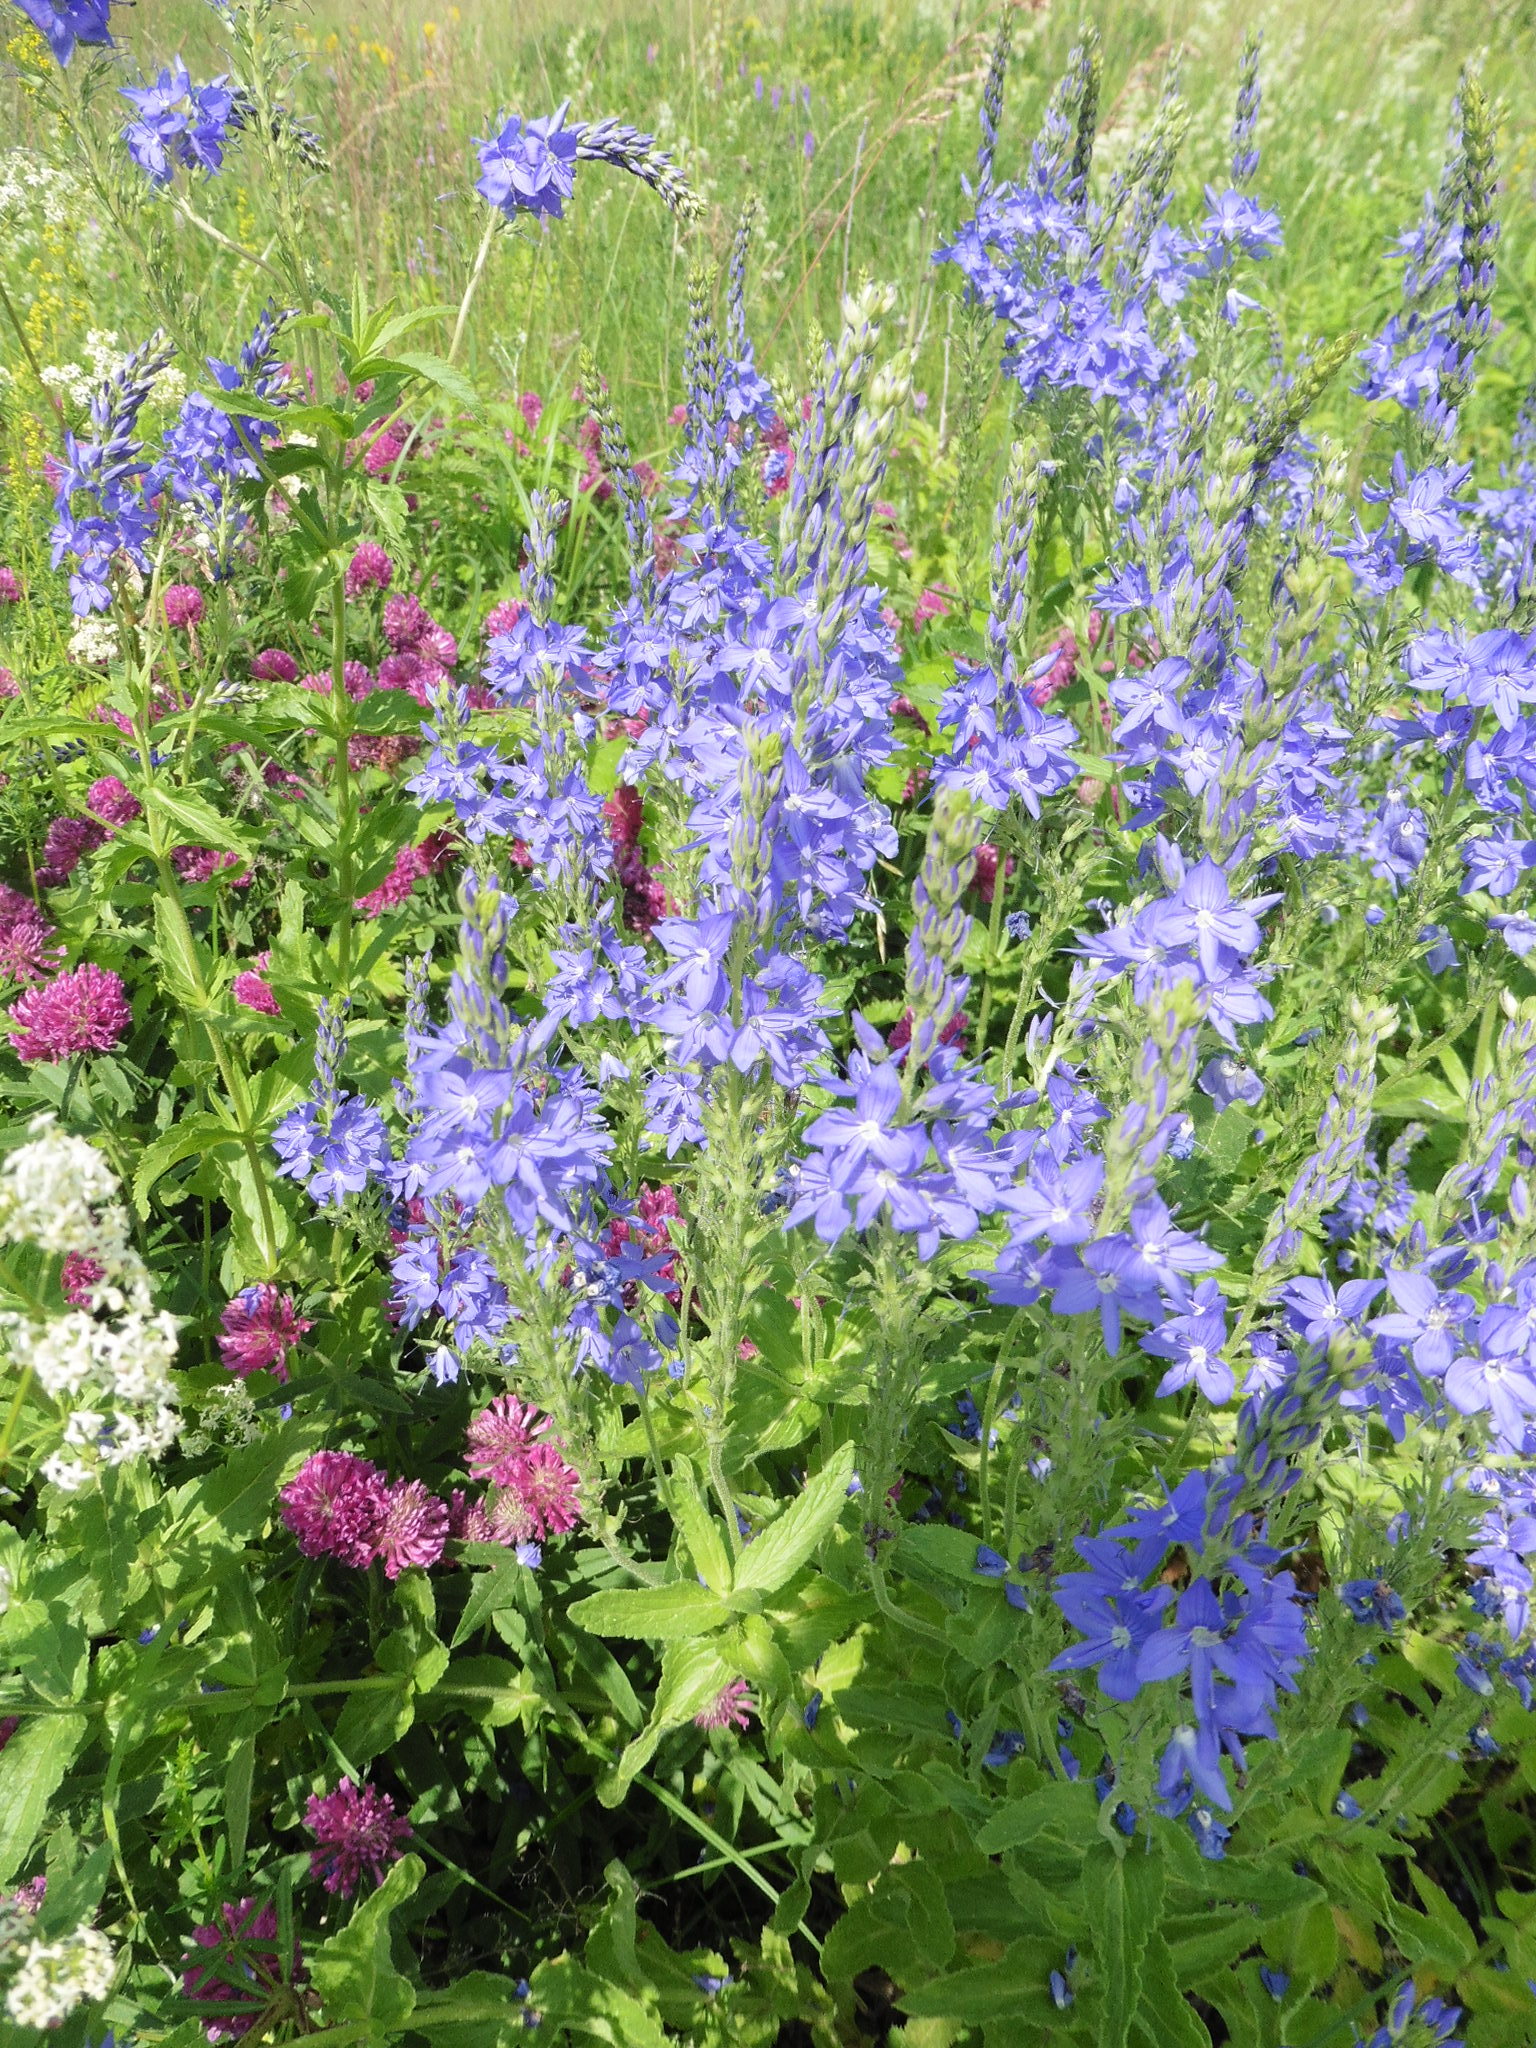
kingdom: Plantae
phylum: Tracheophyta
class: Magnoliopsida
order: Lamiales
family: Plantaginaceae
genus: Veronica
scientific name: Veronica teucrium
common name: Large speedwell
